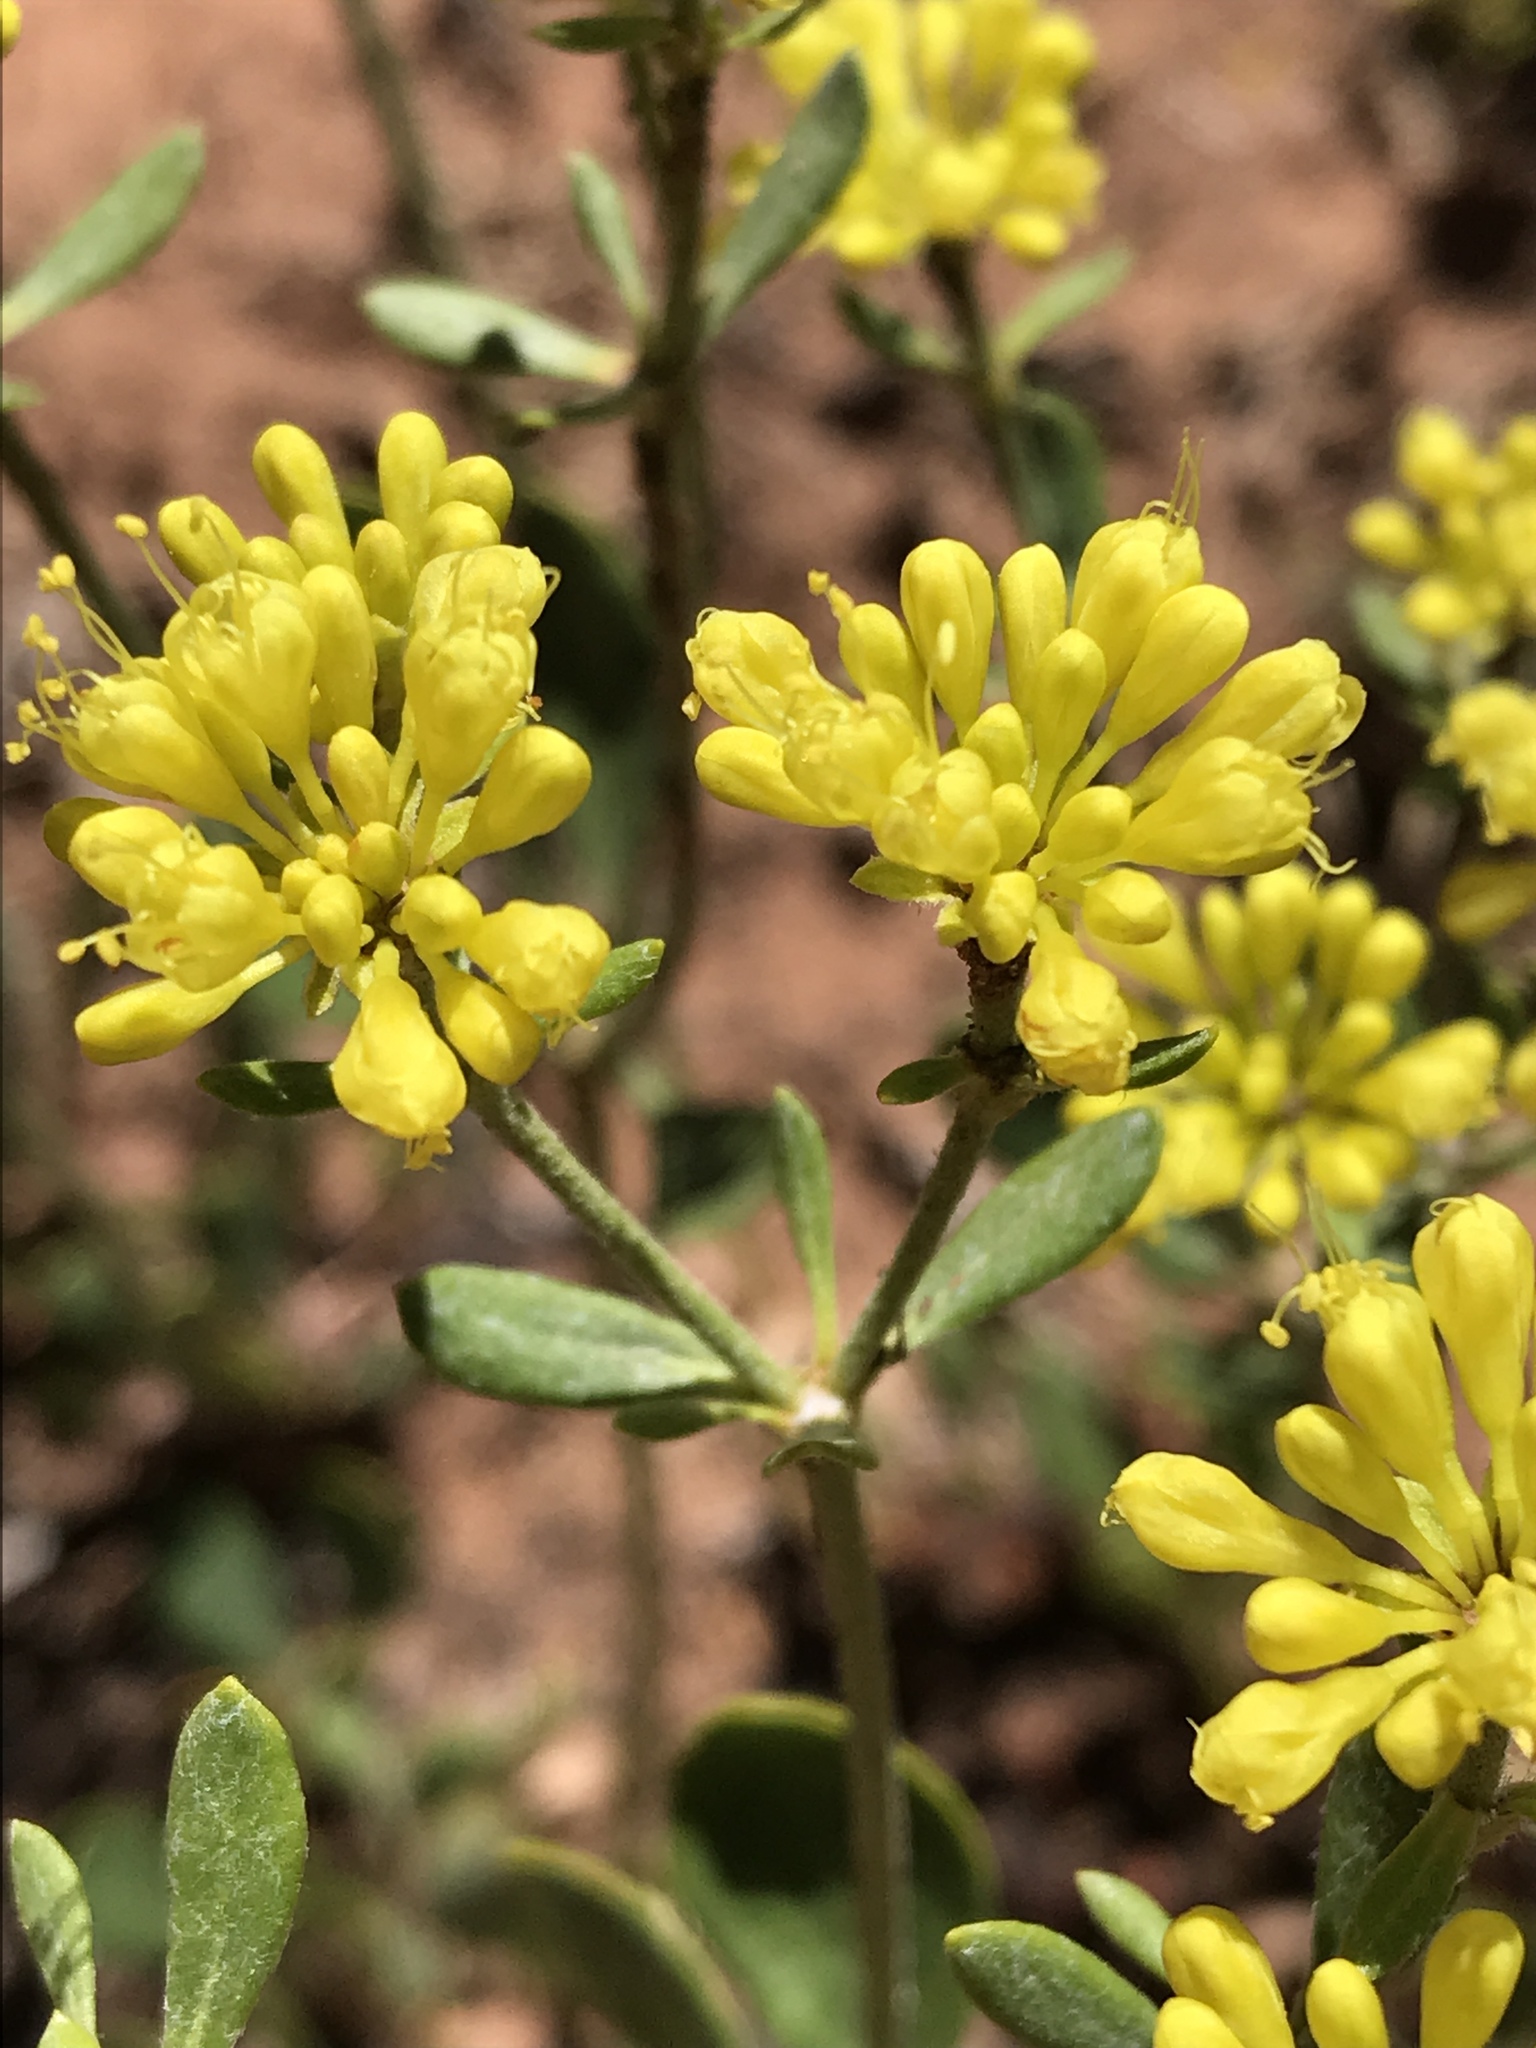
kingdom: Plantae
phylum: Tracheophyta
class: Magnoliopsida
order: Caryophyllales
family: Polygonaceae
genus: Eriogonum
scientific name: Eriogonum umbellatum
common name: Sulfur-buckwheat
